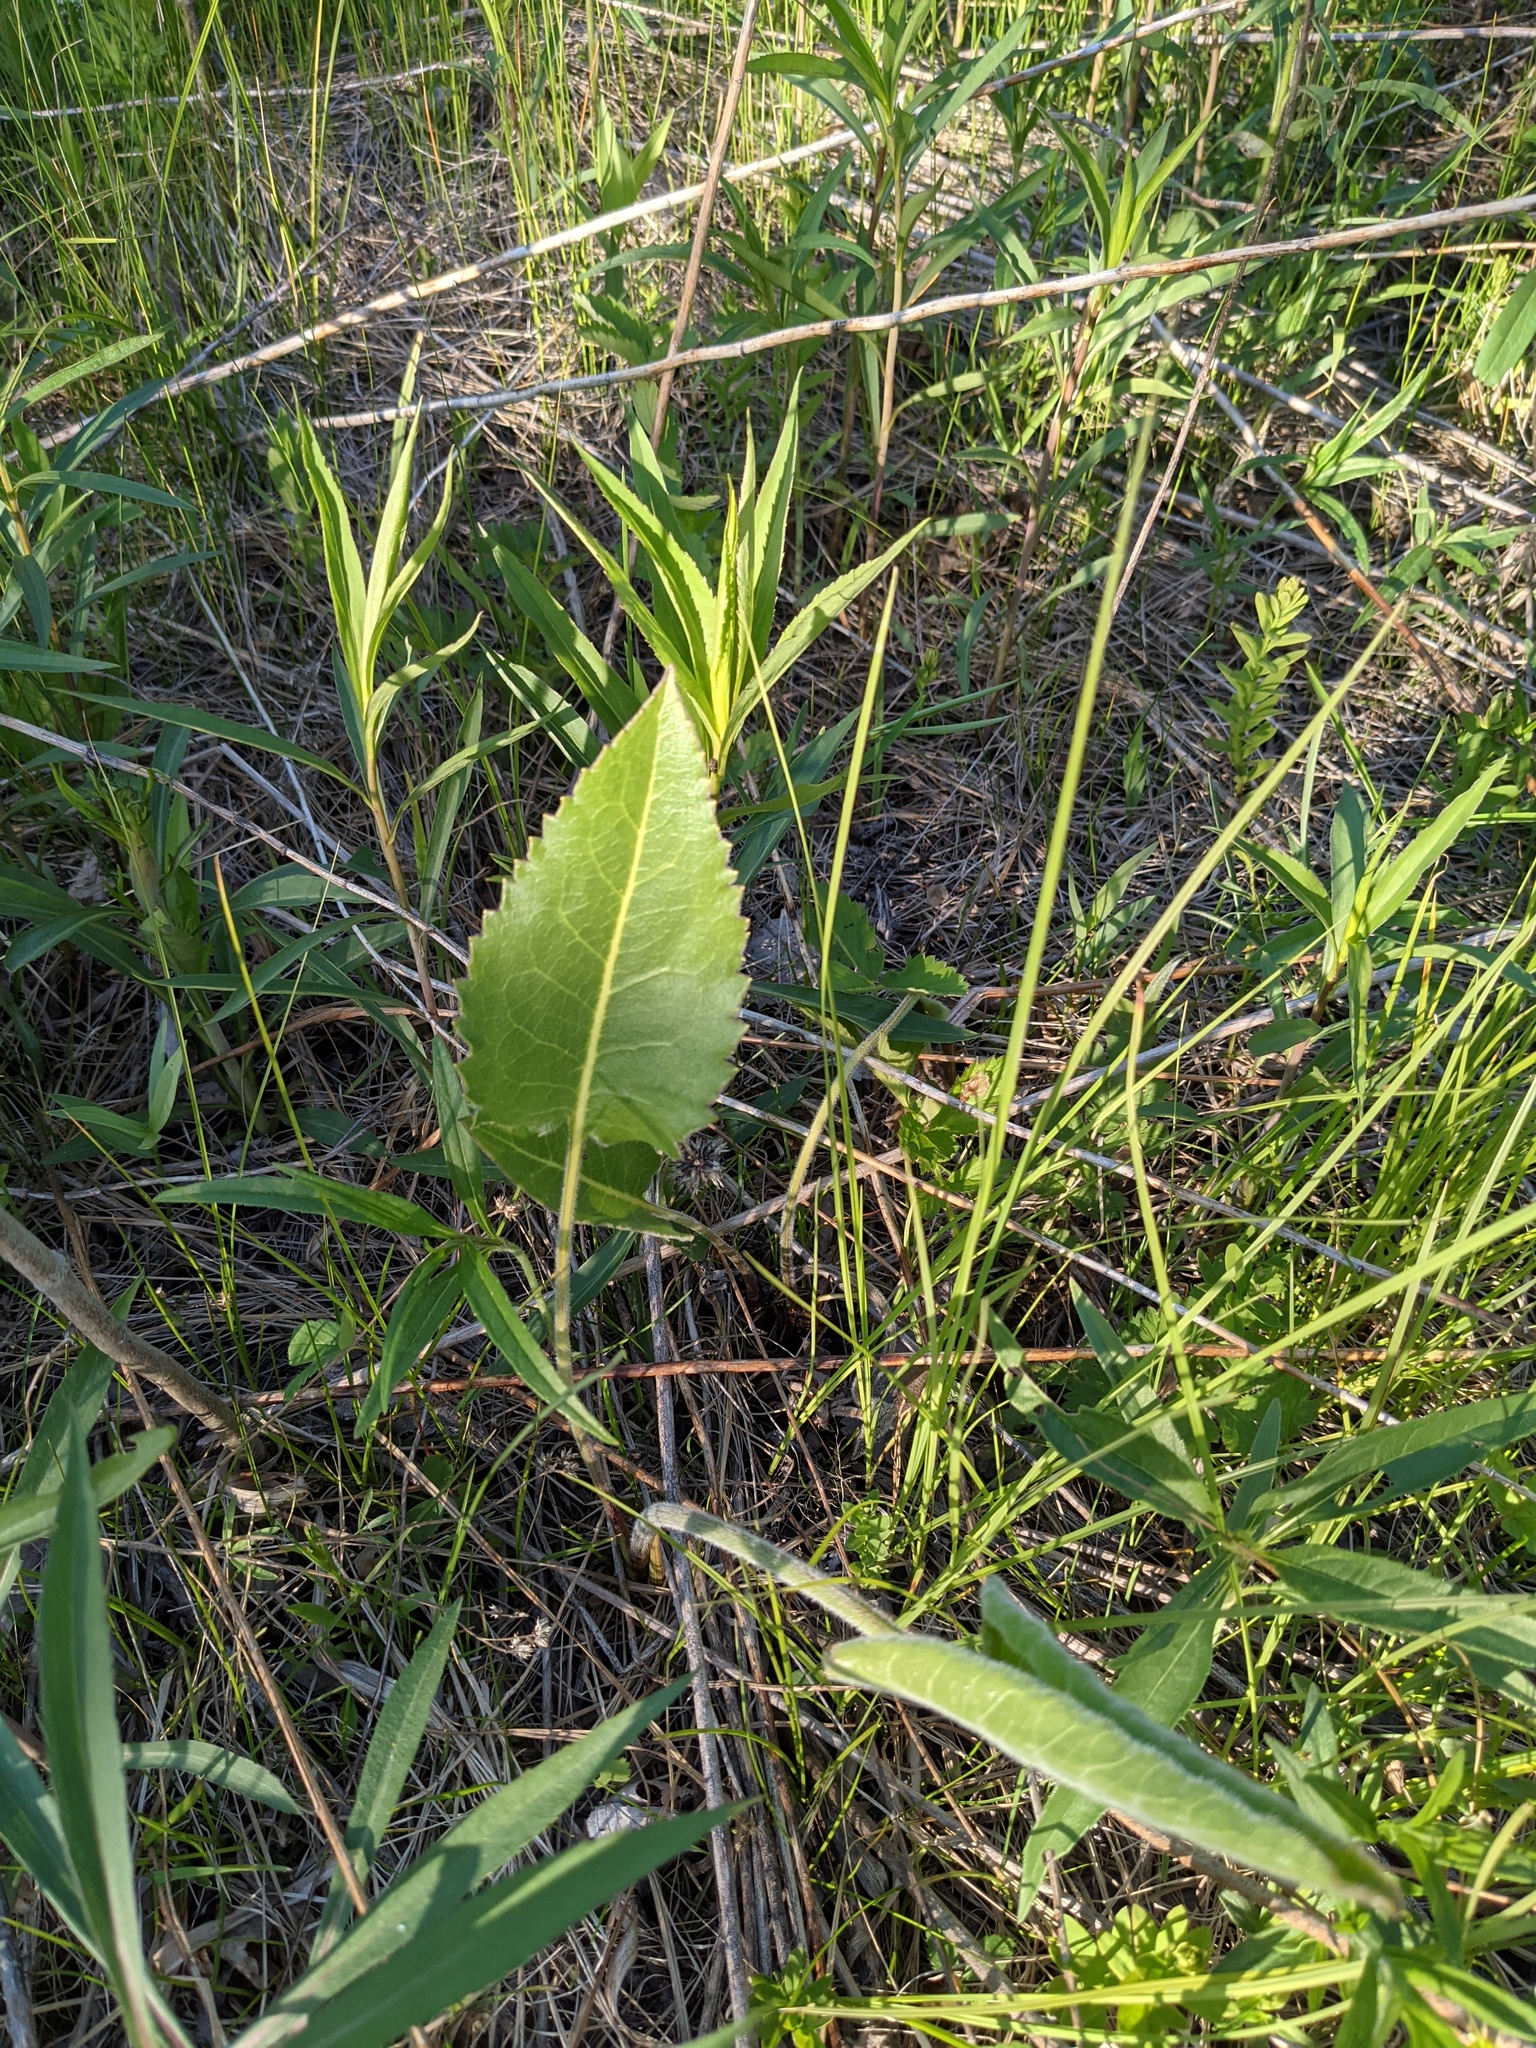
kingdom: Plantae
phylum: Tracheophyta
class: Magnoliopsida
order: Asterales
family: Asteraceae
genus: Silphium
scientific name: Silphium terebinthinaceum
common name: Basal-leaf rosinweed
